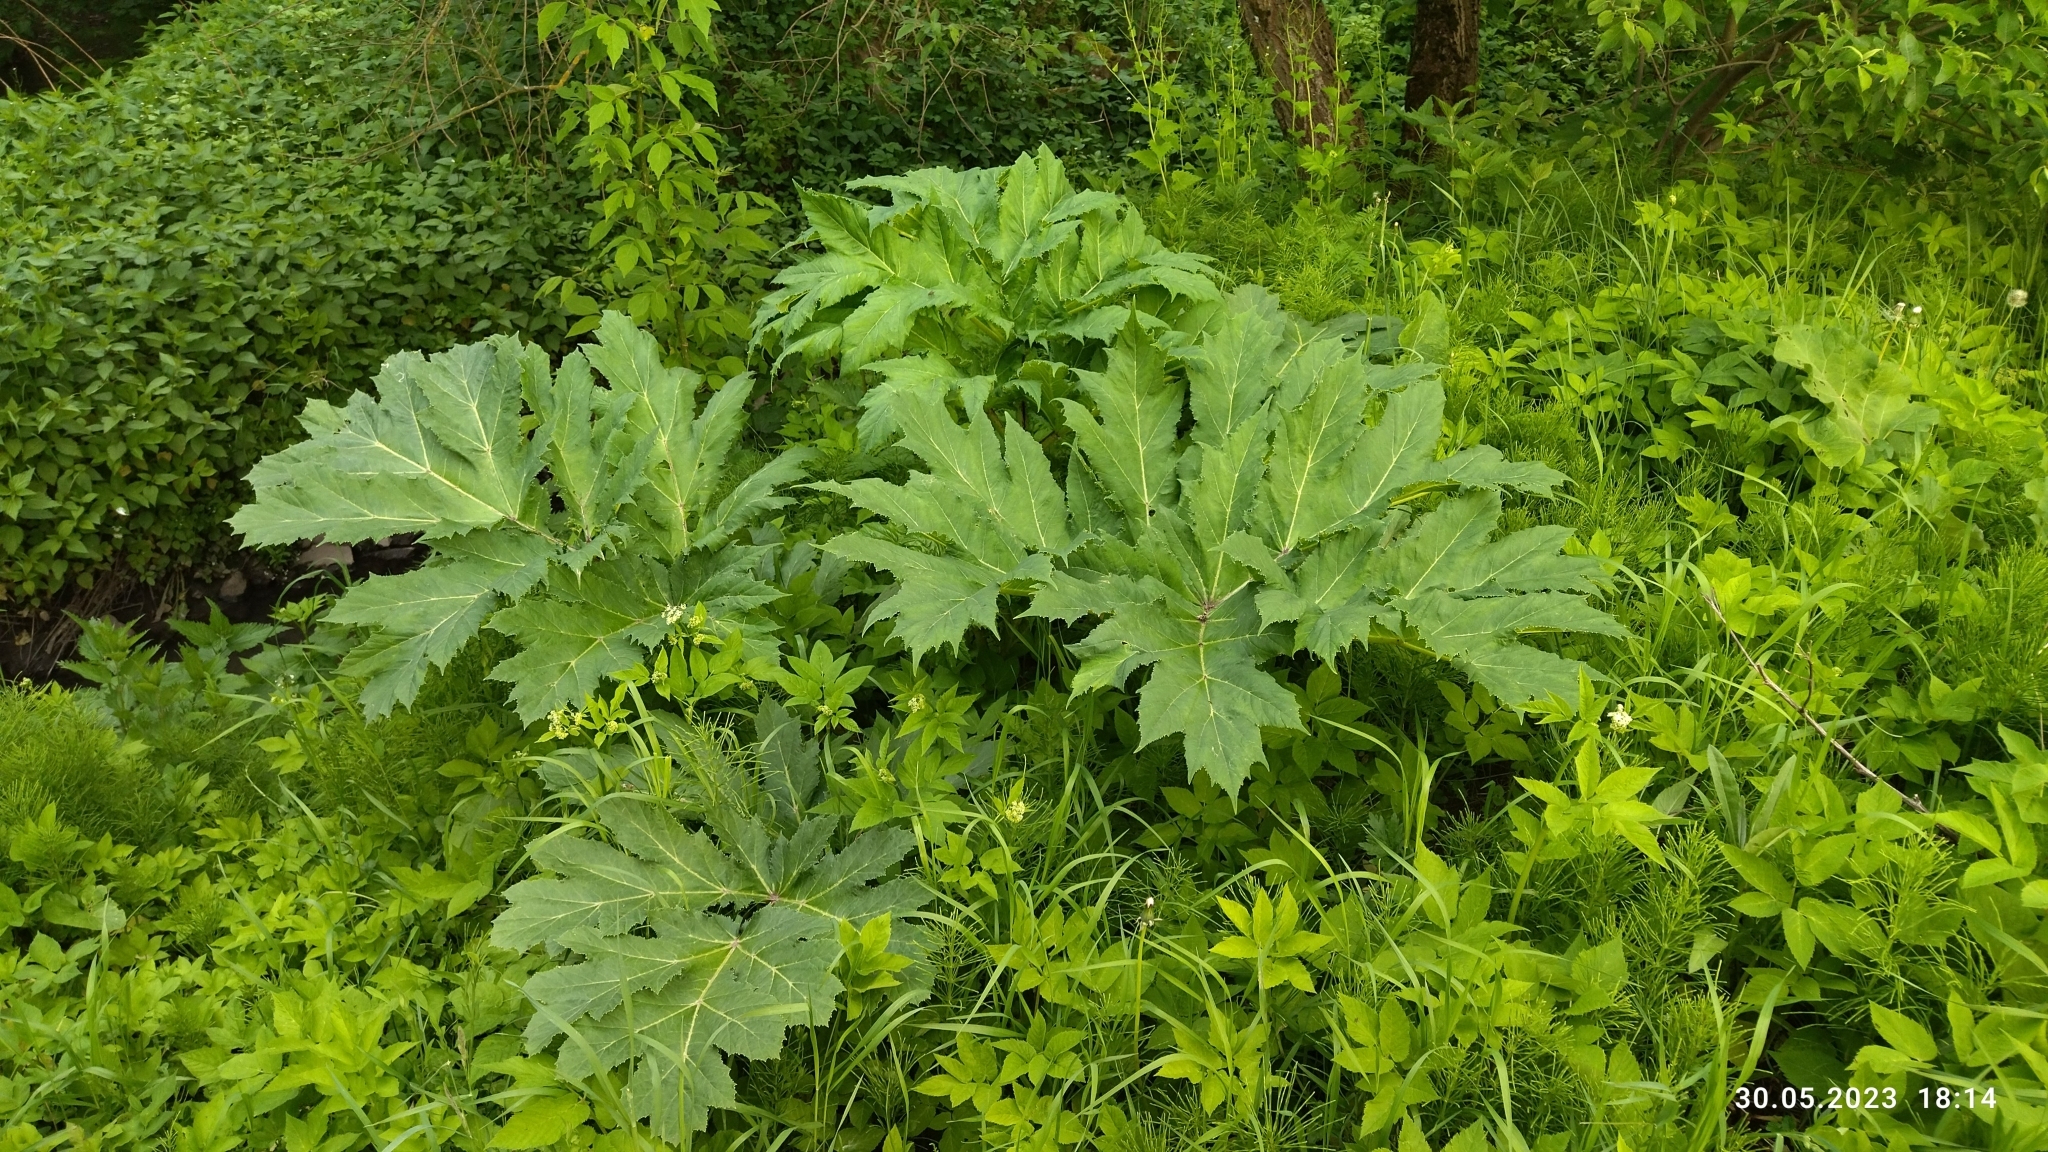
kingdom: Plantae
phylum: Tracheophyta
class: Magnoliopsida
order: Apiales
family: Apiaceae
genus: Heracleum
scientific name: Heracleum sosnowskyi
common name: Sosnowsky's hogweed
